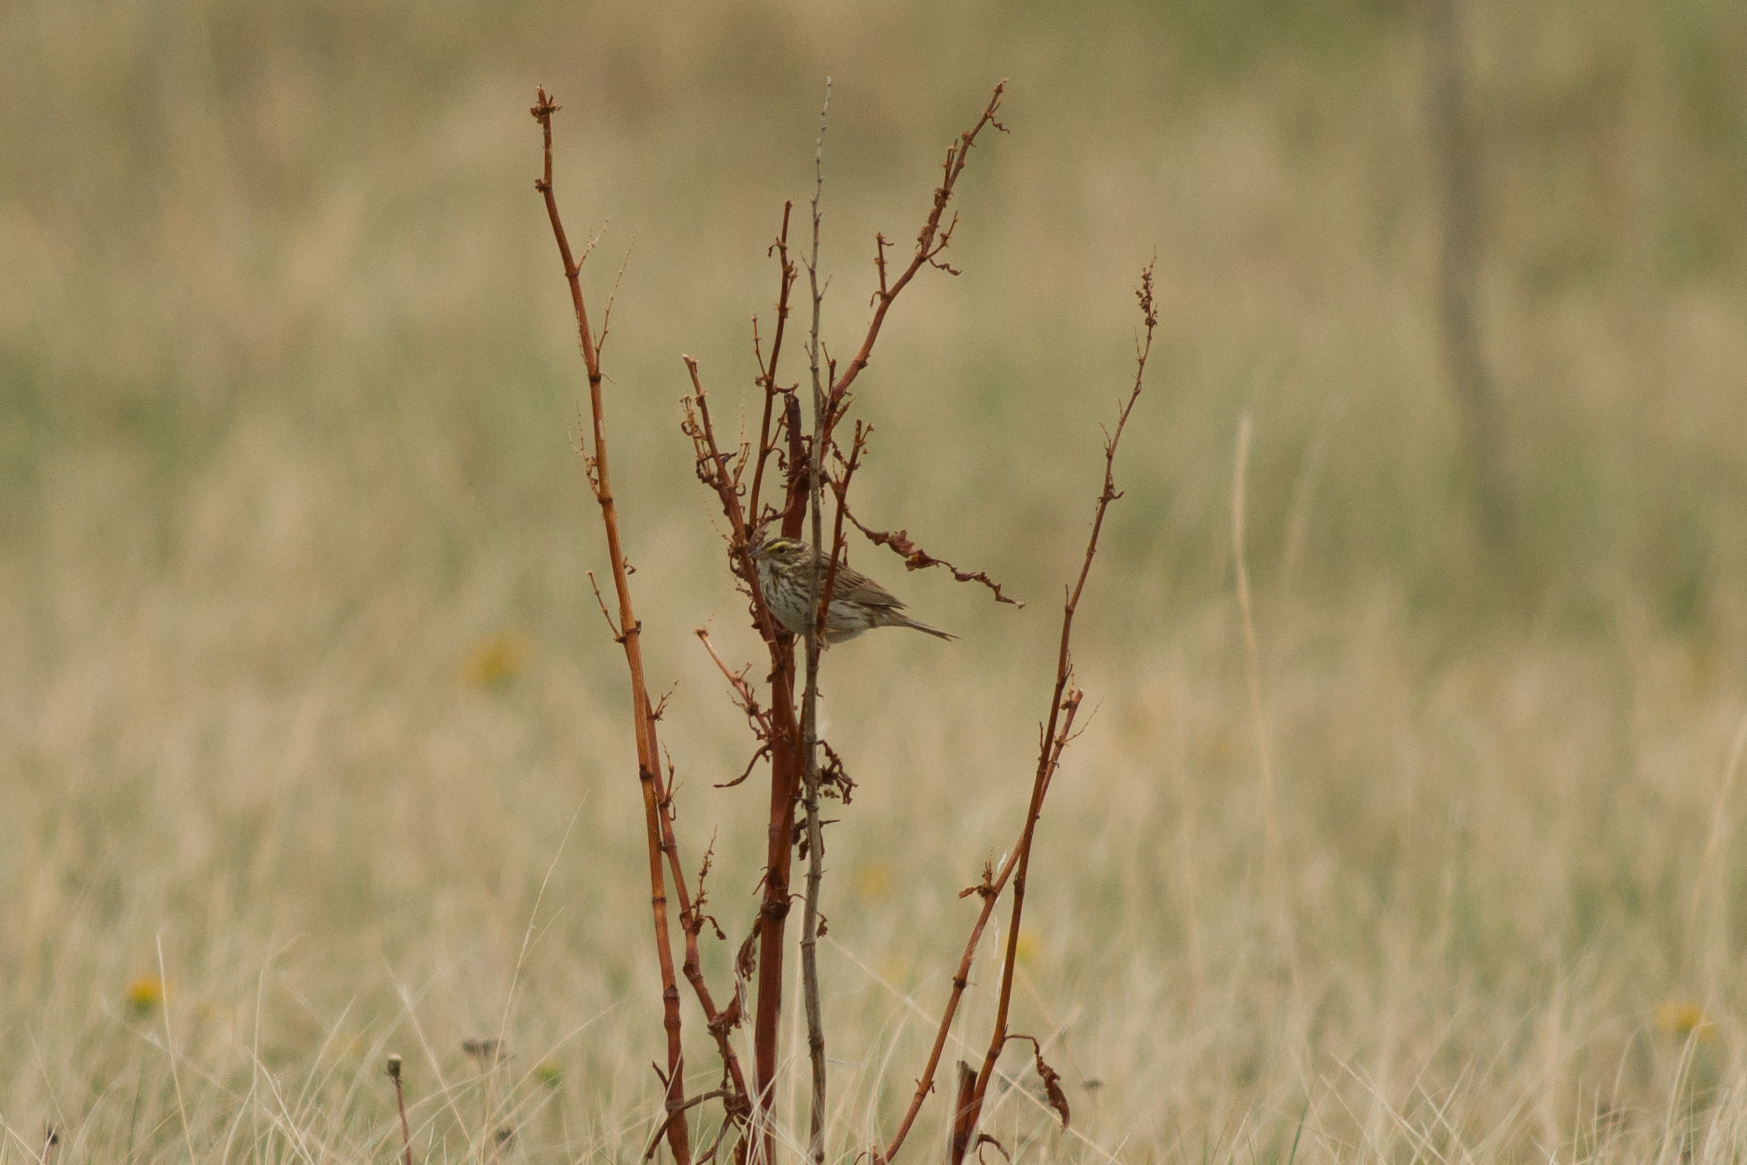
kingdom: Animalia
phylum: Chordata
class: Aves
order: Passeriformes
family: Passerellidae
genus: Passerculus
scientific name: Passerculus sandwichensis
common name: Savannah sparrow
